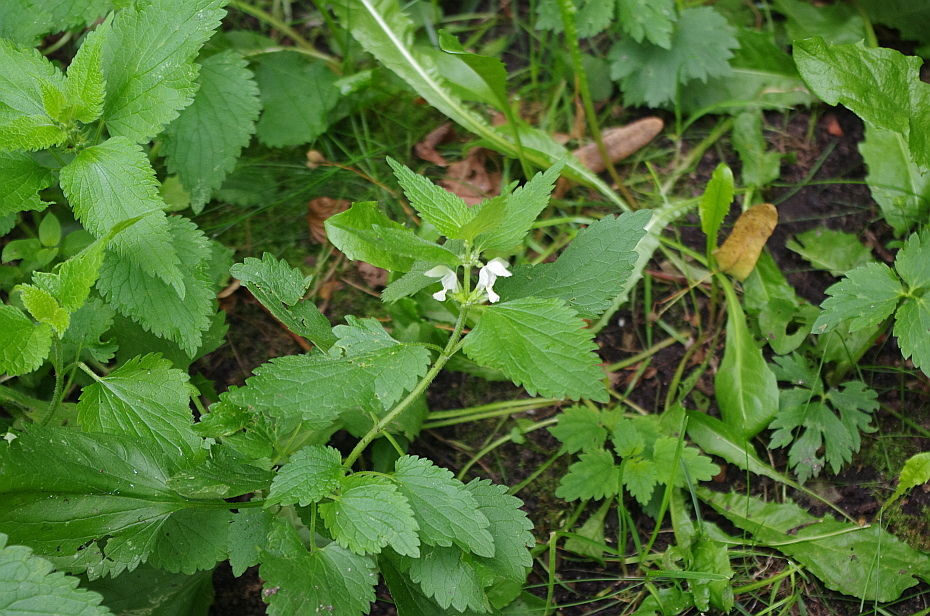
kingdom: Plantae
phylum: Tracheophyta
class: Magnoliopsida
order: Lamiales
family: Lamiaceae
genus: Lamium
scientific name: Lamium album
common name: White dead-nettle
